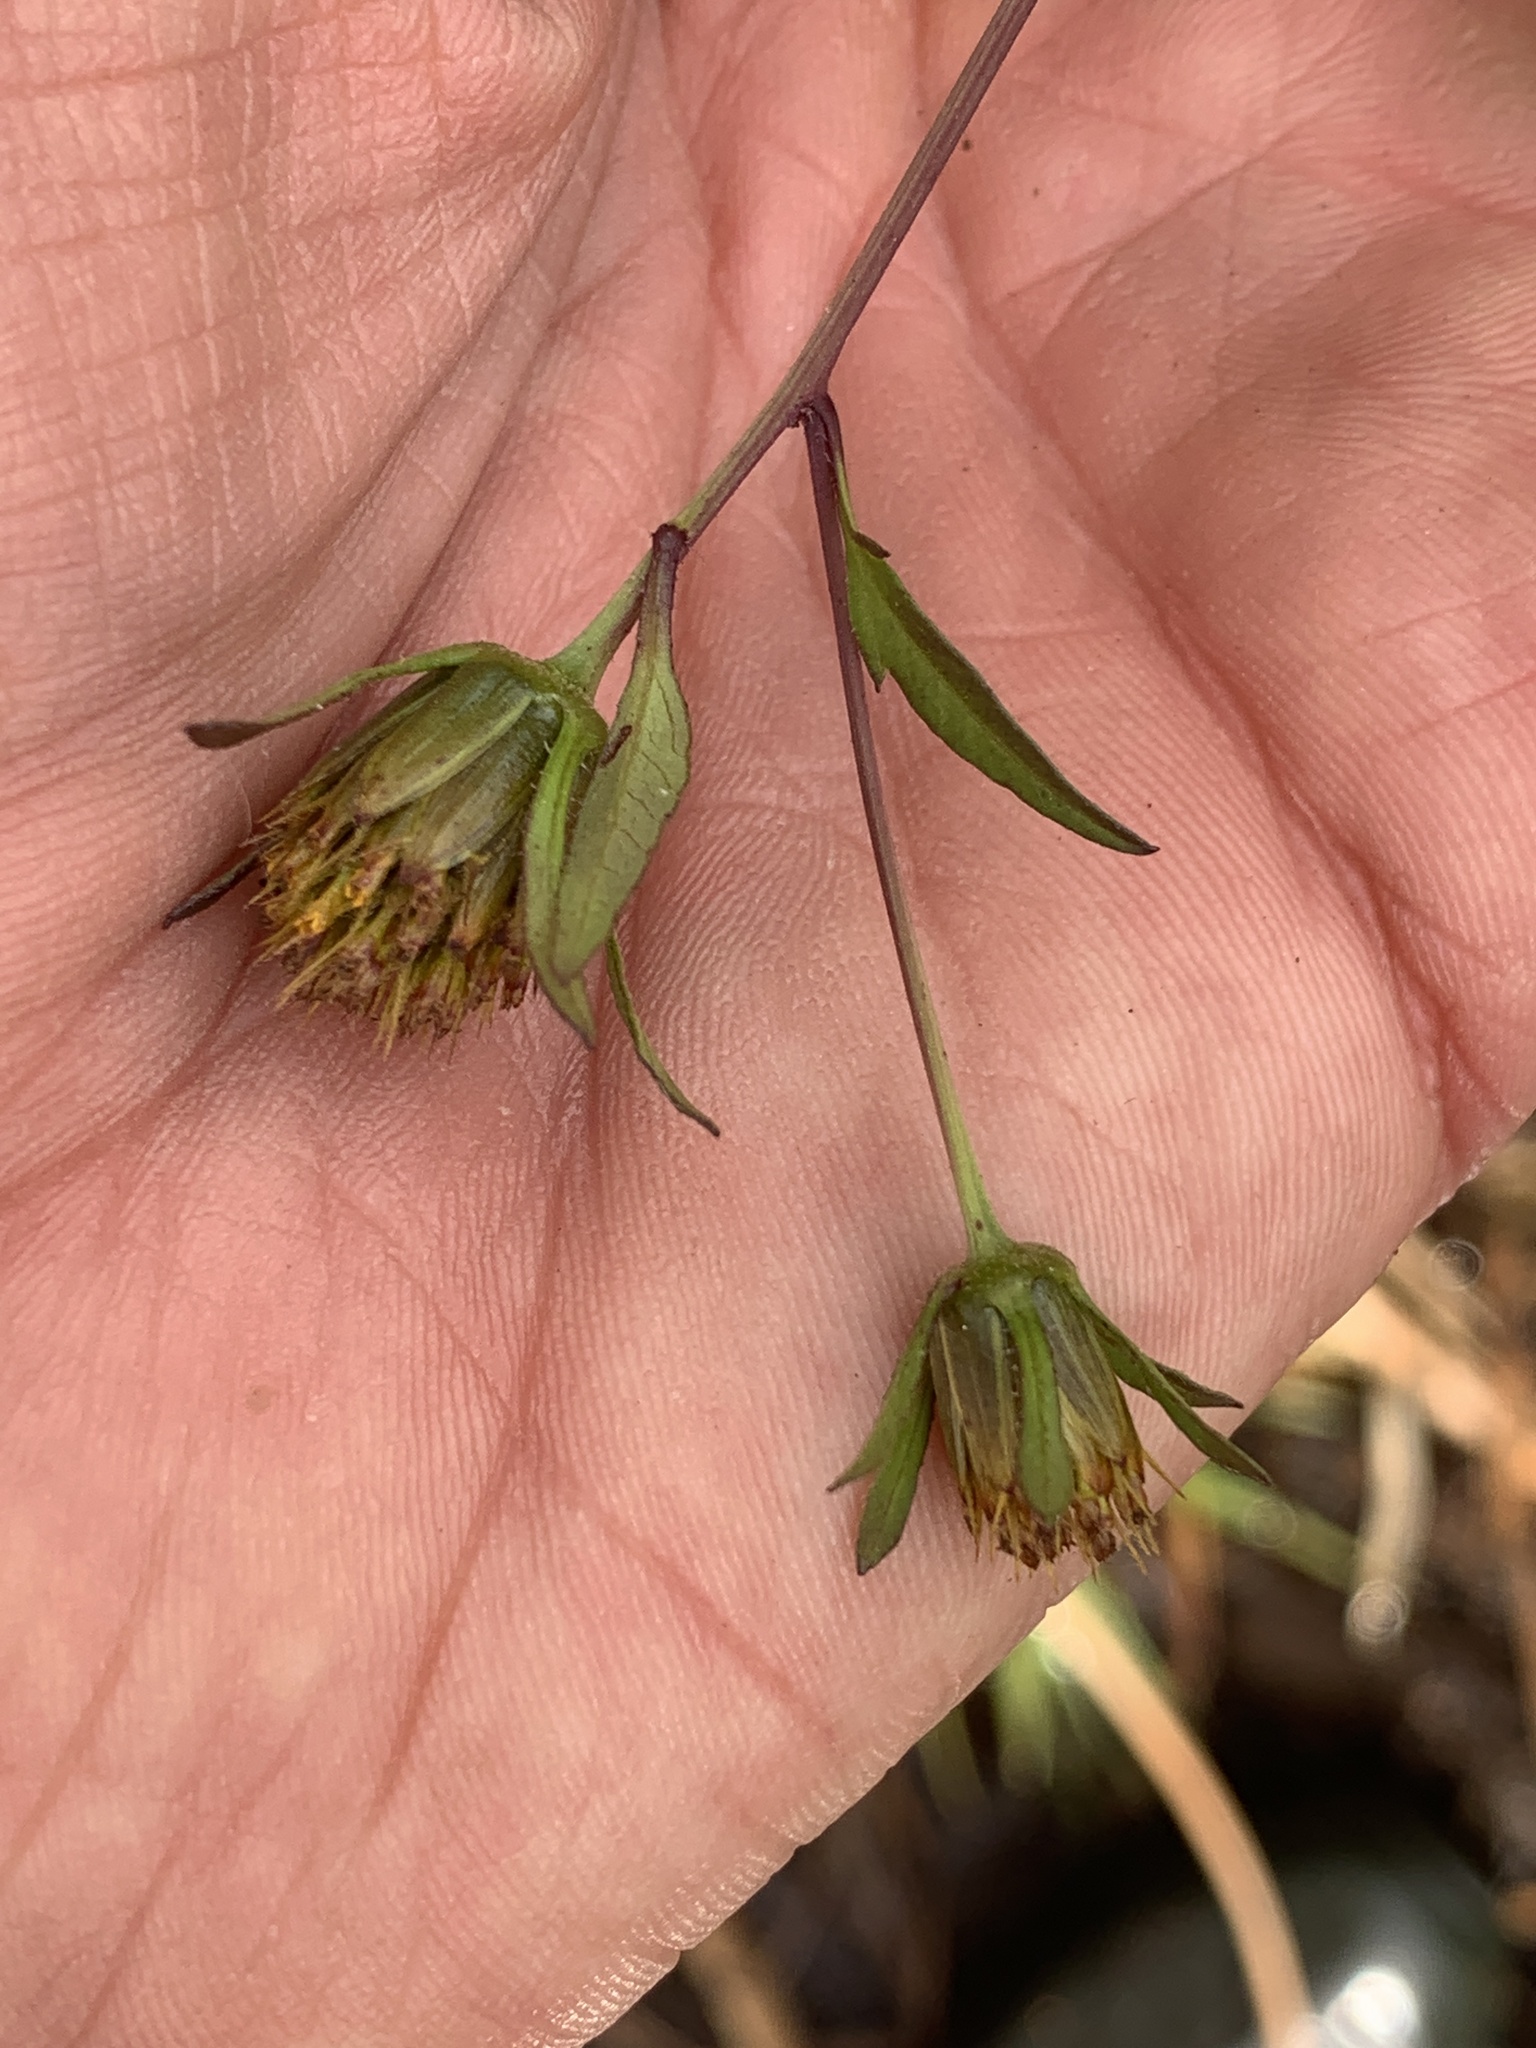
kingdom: Plantae
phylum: Tracheophyta
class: Magnoliopsida
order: Asterales
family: Asteraceae
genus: Bidens
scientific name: Bidens frondosa
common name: Beggarticks
